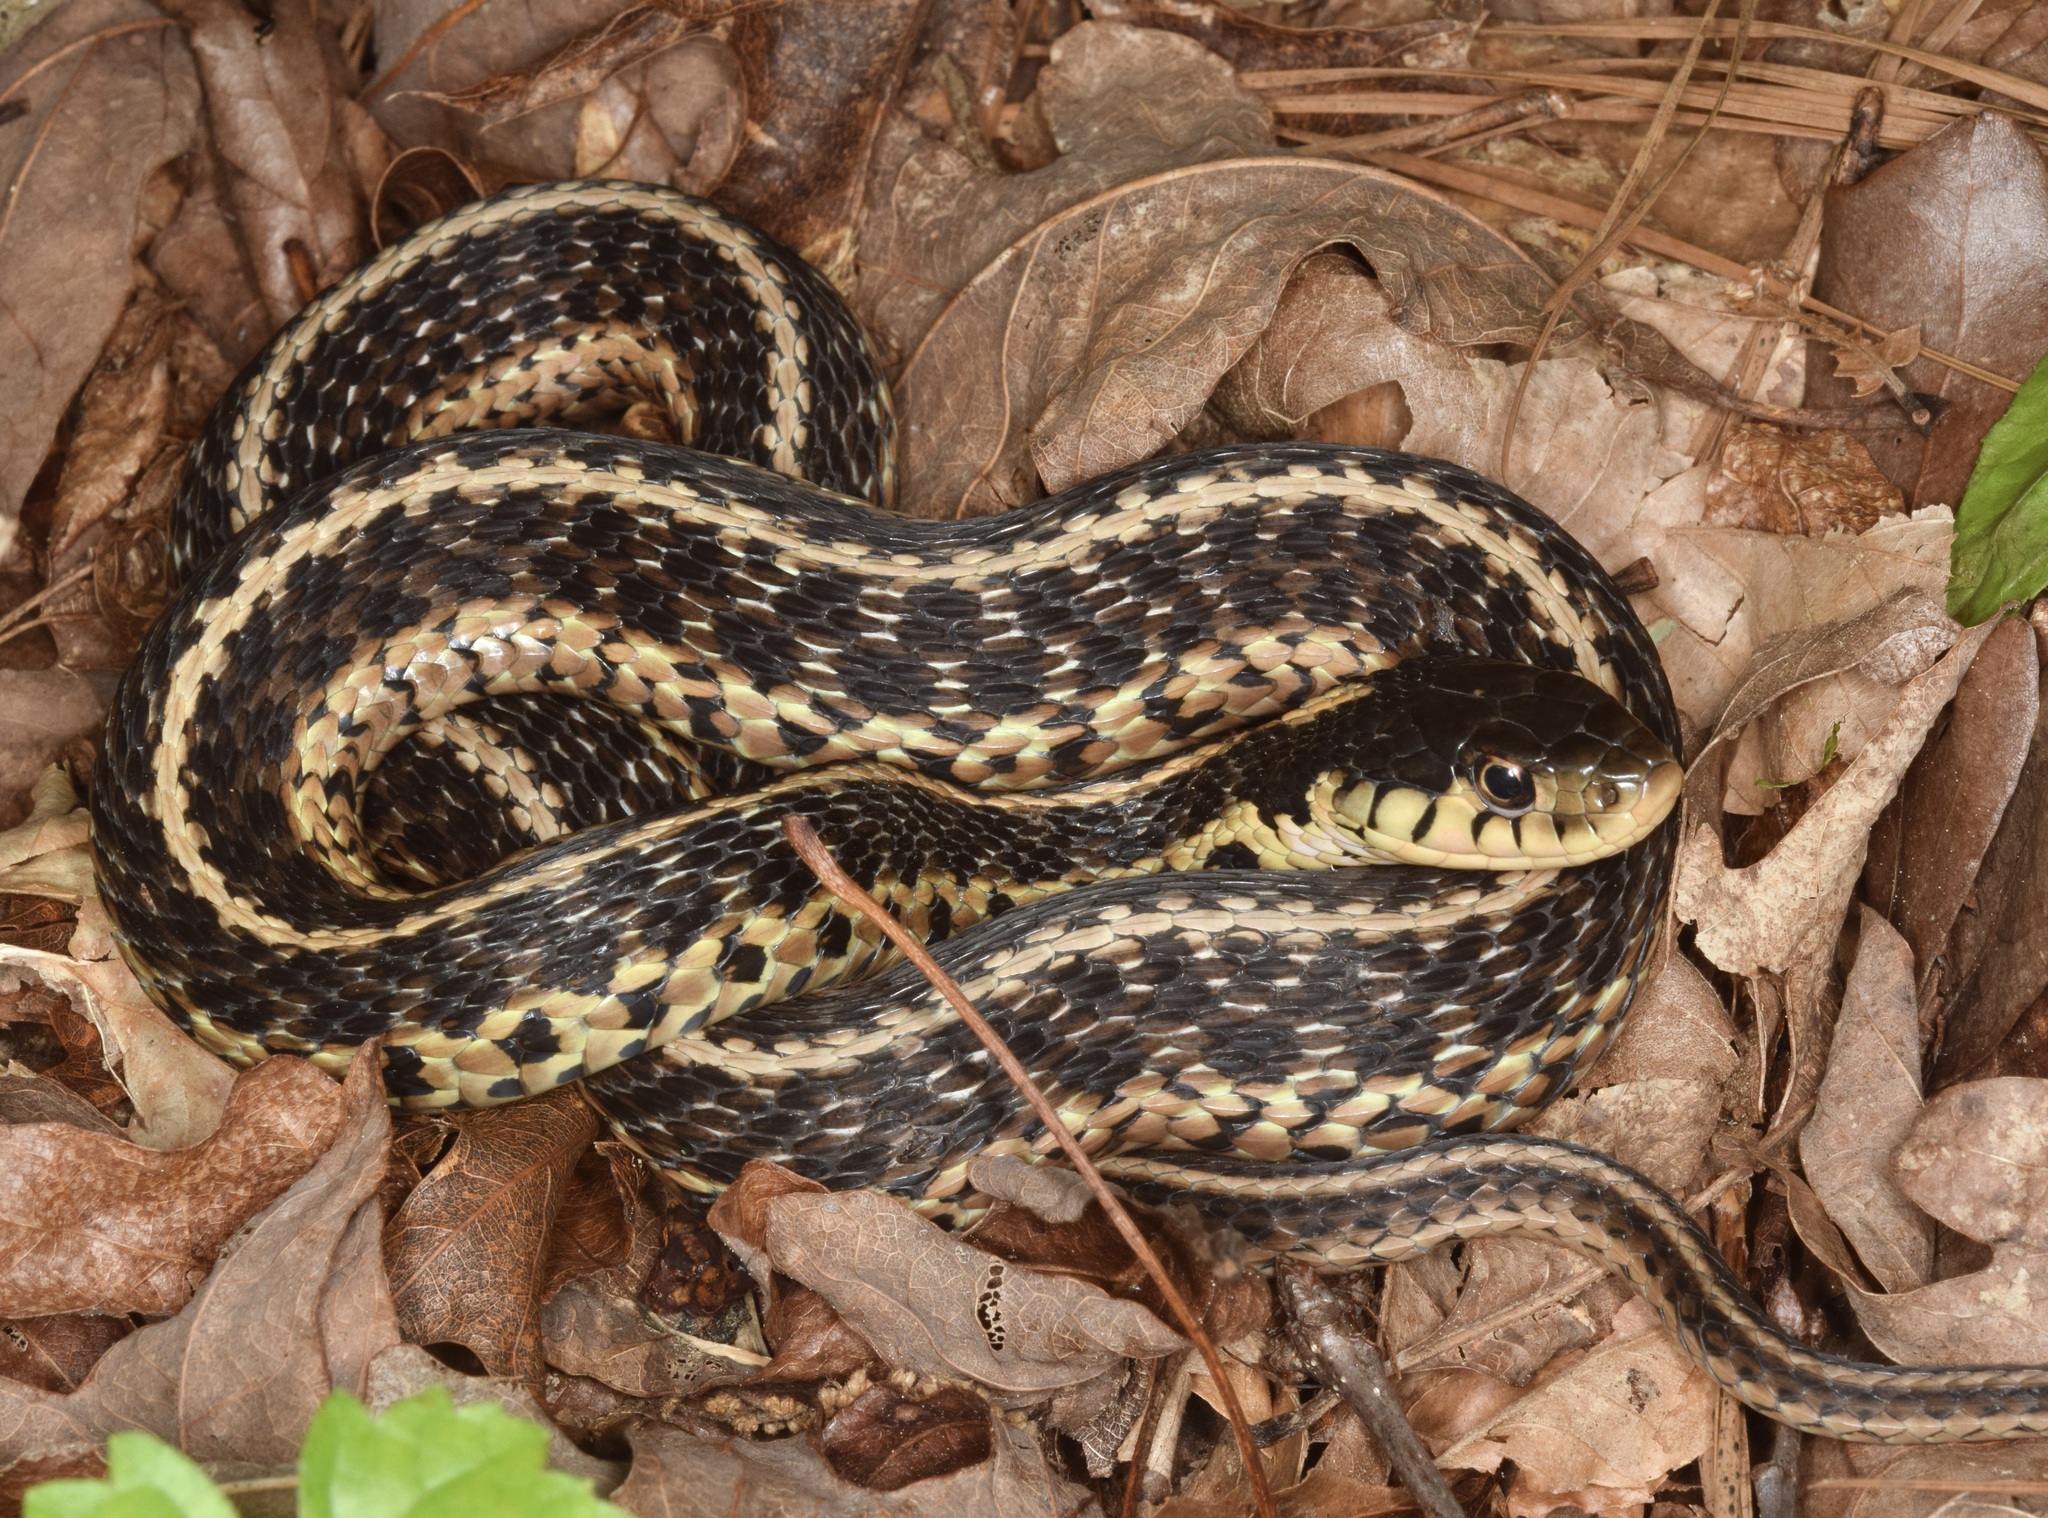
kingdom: Animalia
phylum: Chordata
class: Squamata
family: Colubridae
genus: Thamnophis
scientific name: Thamnophis sirtalis
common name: Common garter snake
